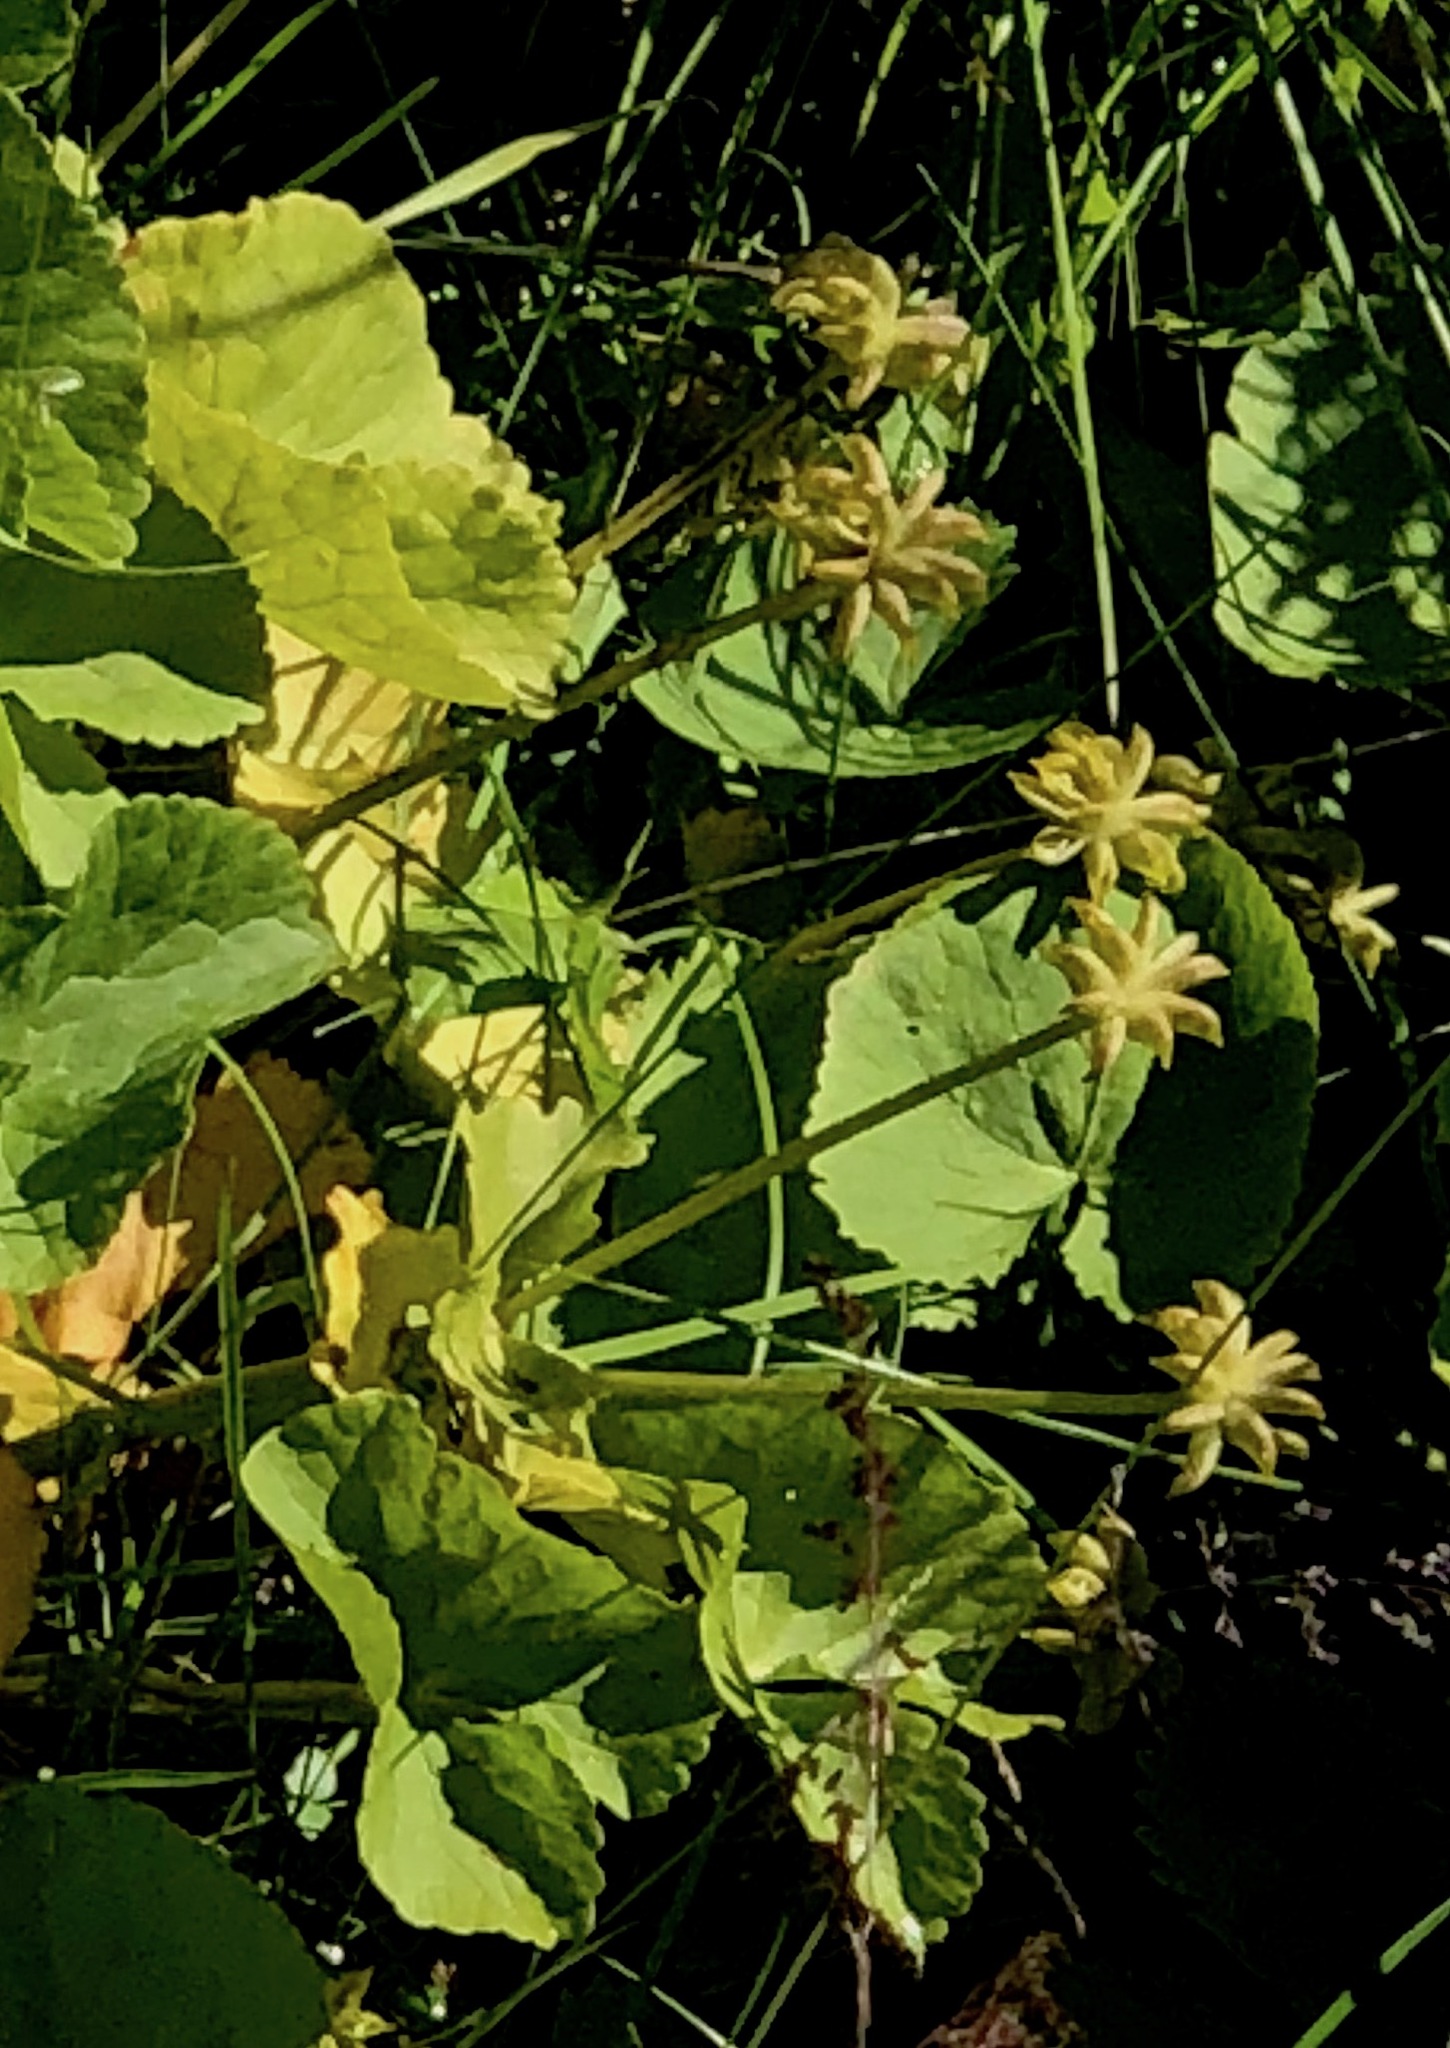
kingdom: Plantae
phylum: Tracheophyta
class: Magnoliopsida
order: Ranunculales
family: Ranunculaceae
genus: Caltha
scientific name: Caltha palustris
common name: Marsh marigold
